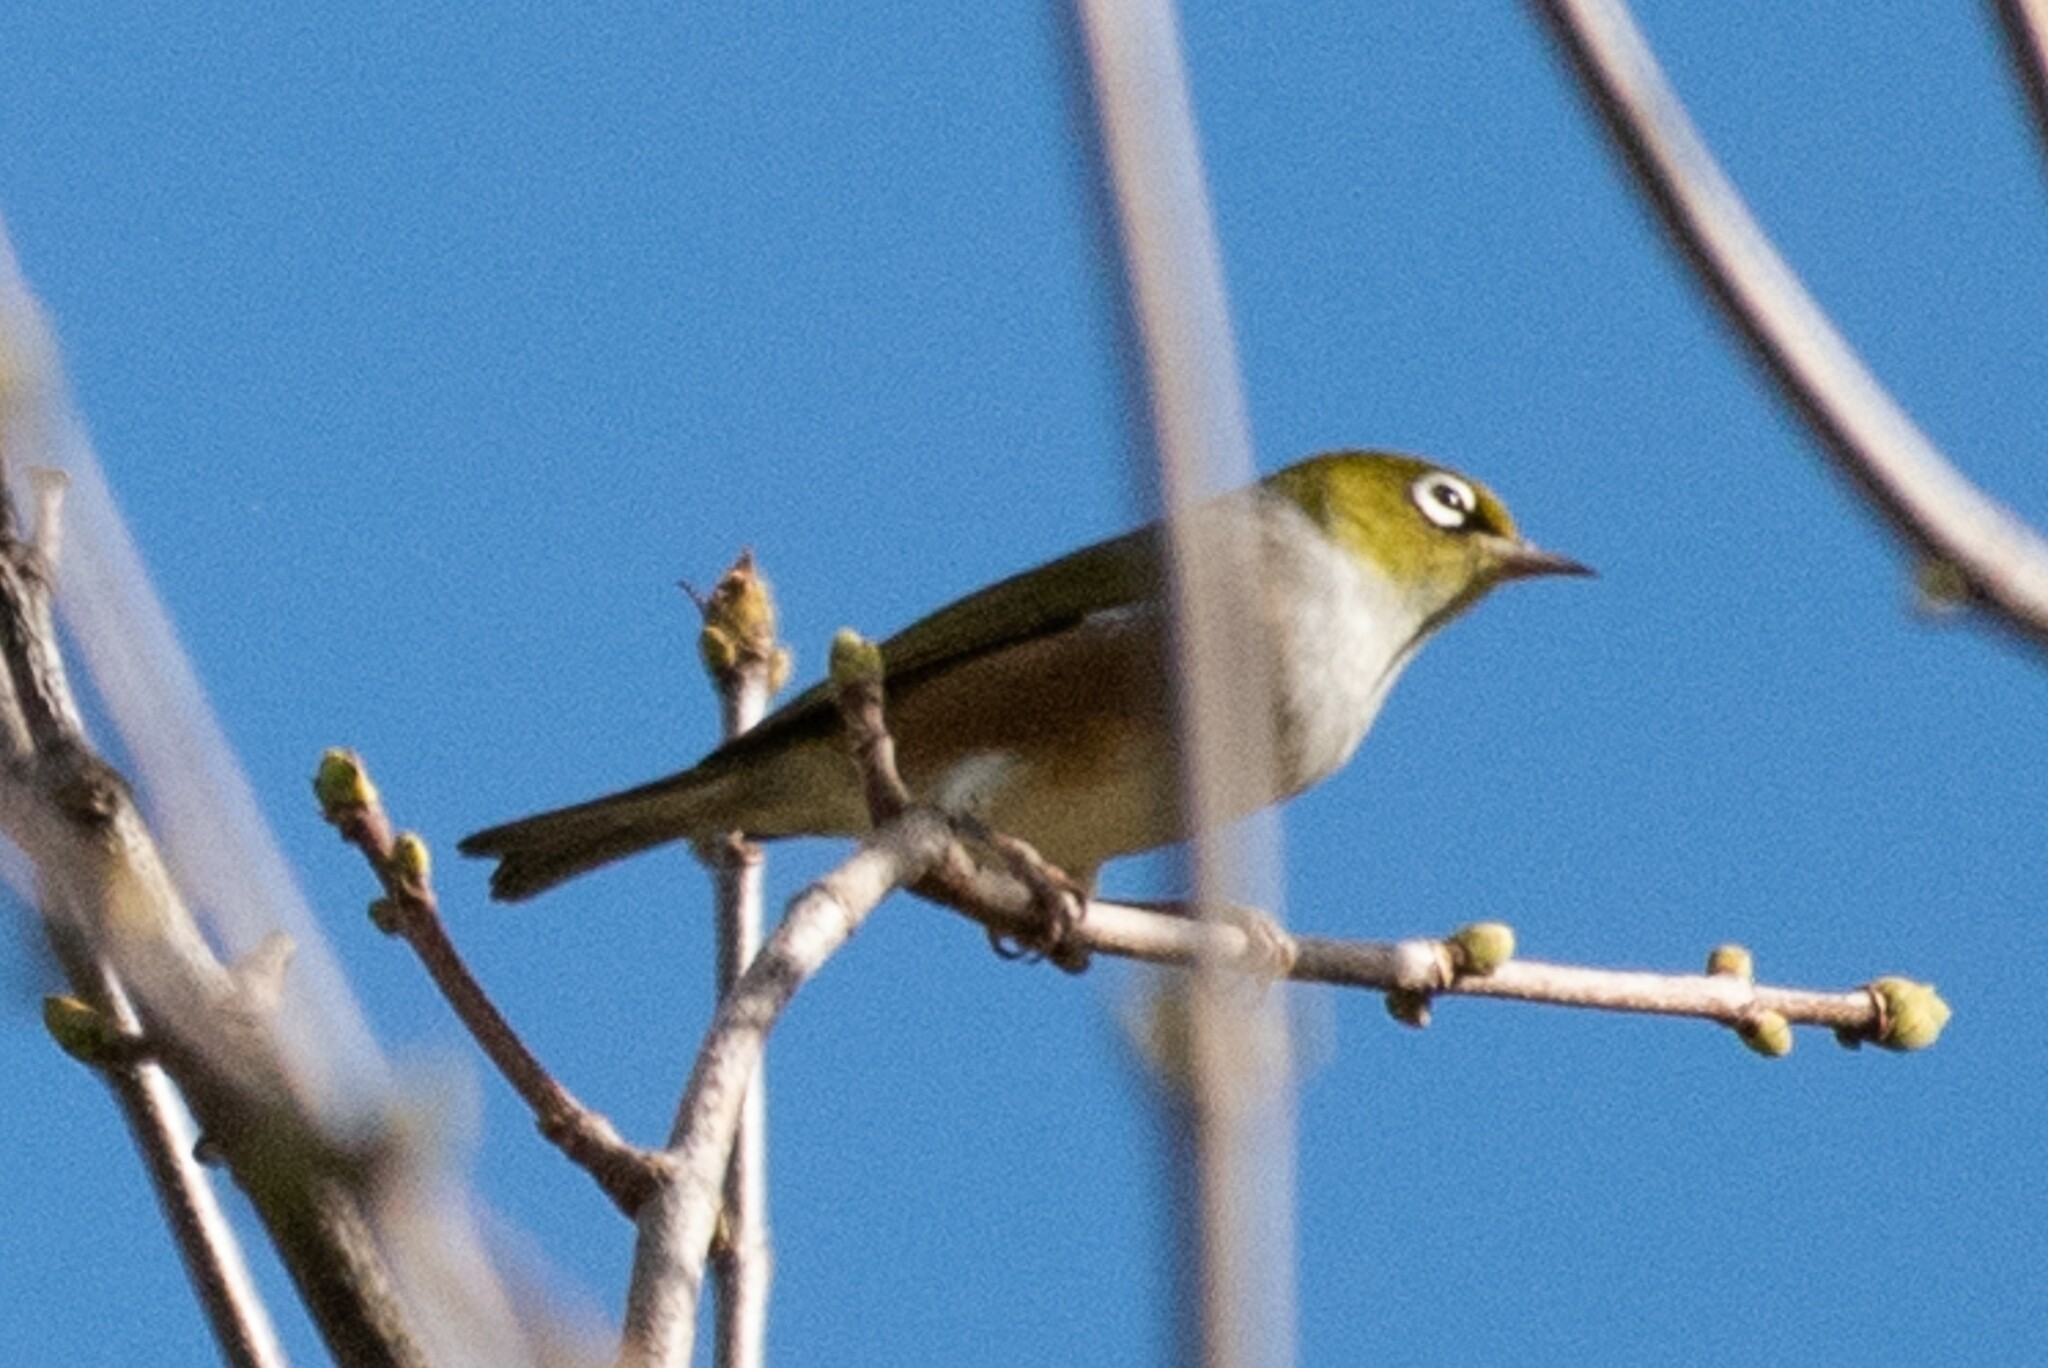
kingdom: Animalia
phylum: Chordata
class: Aves
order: Passeriformes
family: Zosteropidae
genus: Zosterops
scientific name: Zosterops lateralis
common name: Silvereye
